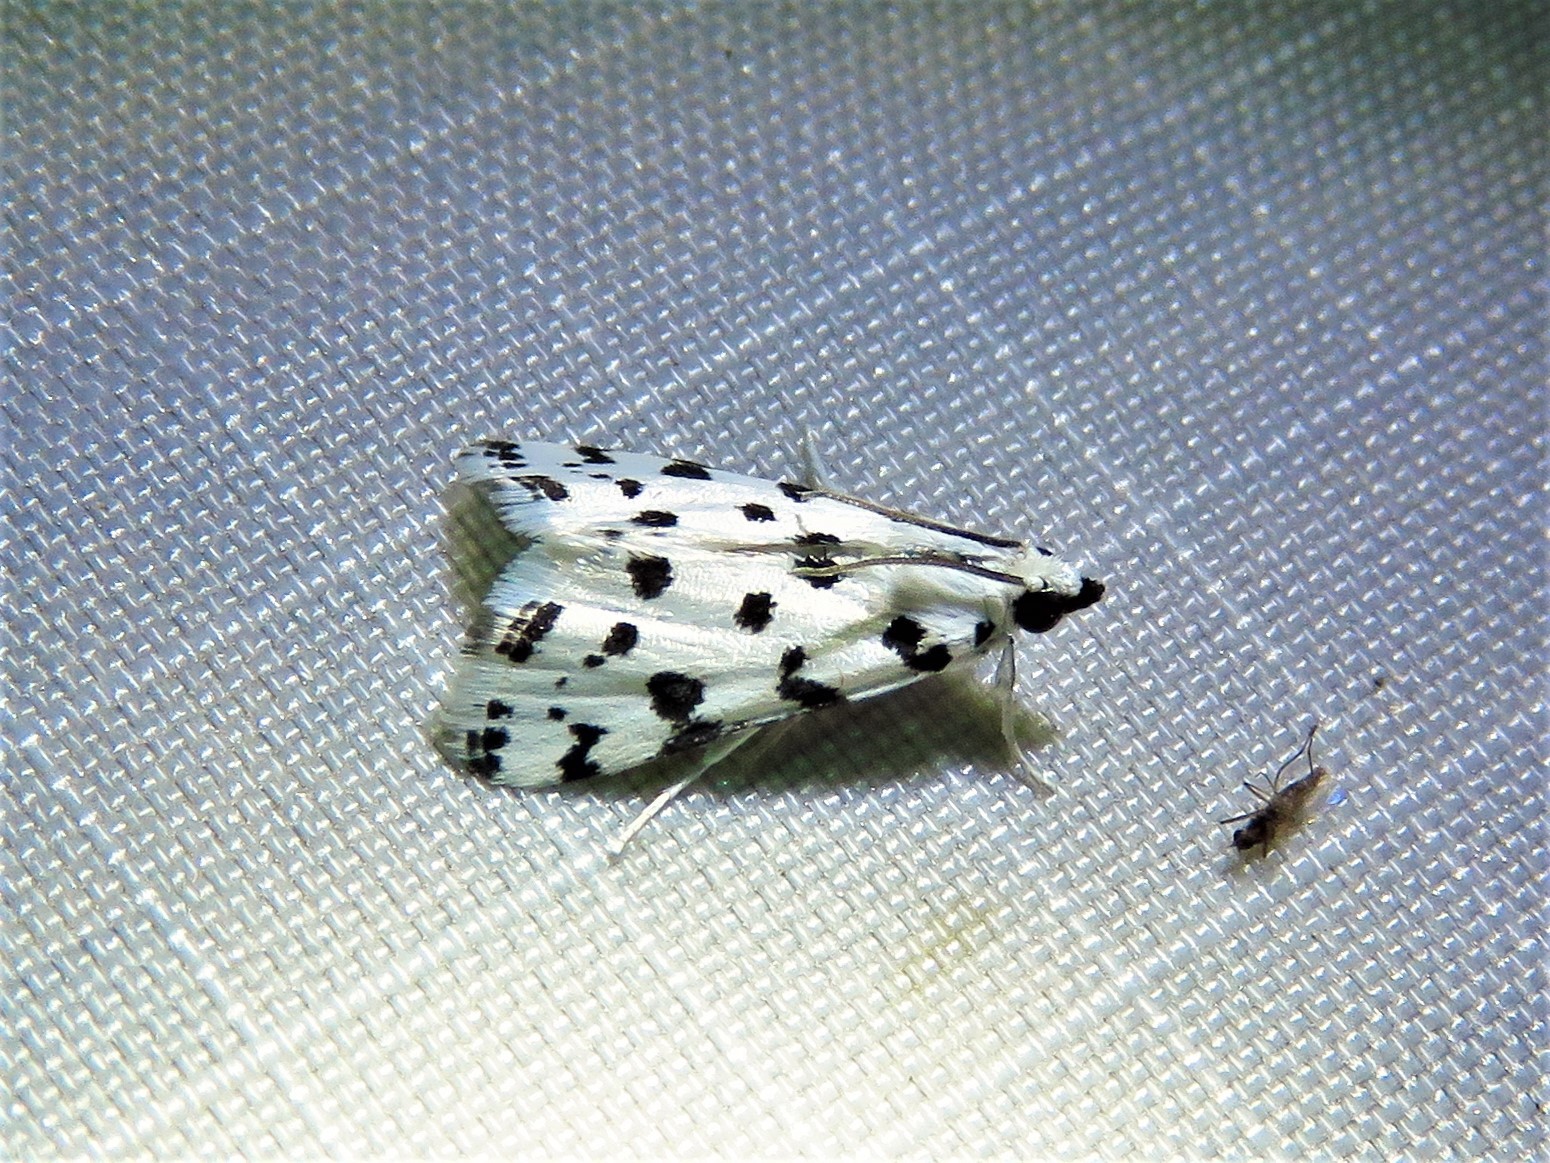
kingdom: Animalia
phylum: Arthropoda
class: Insecta
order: Lepidoptera
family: Crambidae
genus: Eustixia
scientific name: Eustixia pupula
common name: American cabbage pearl
